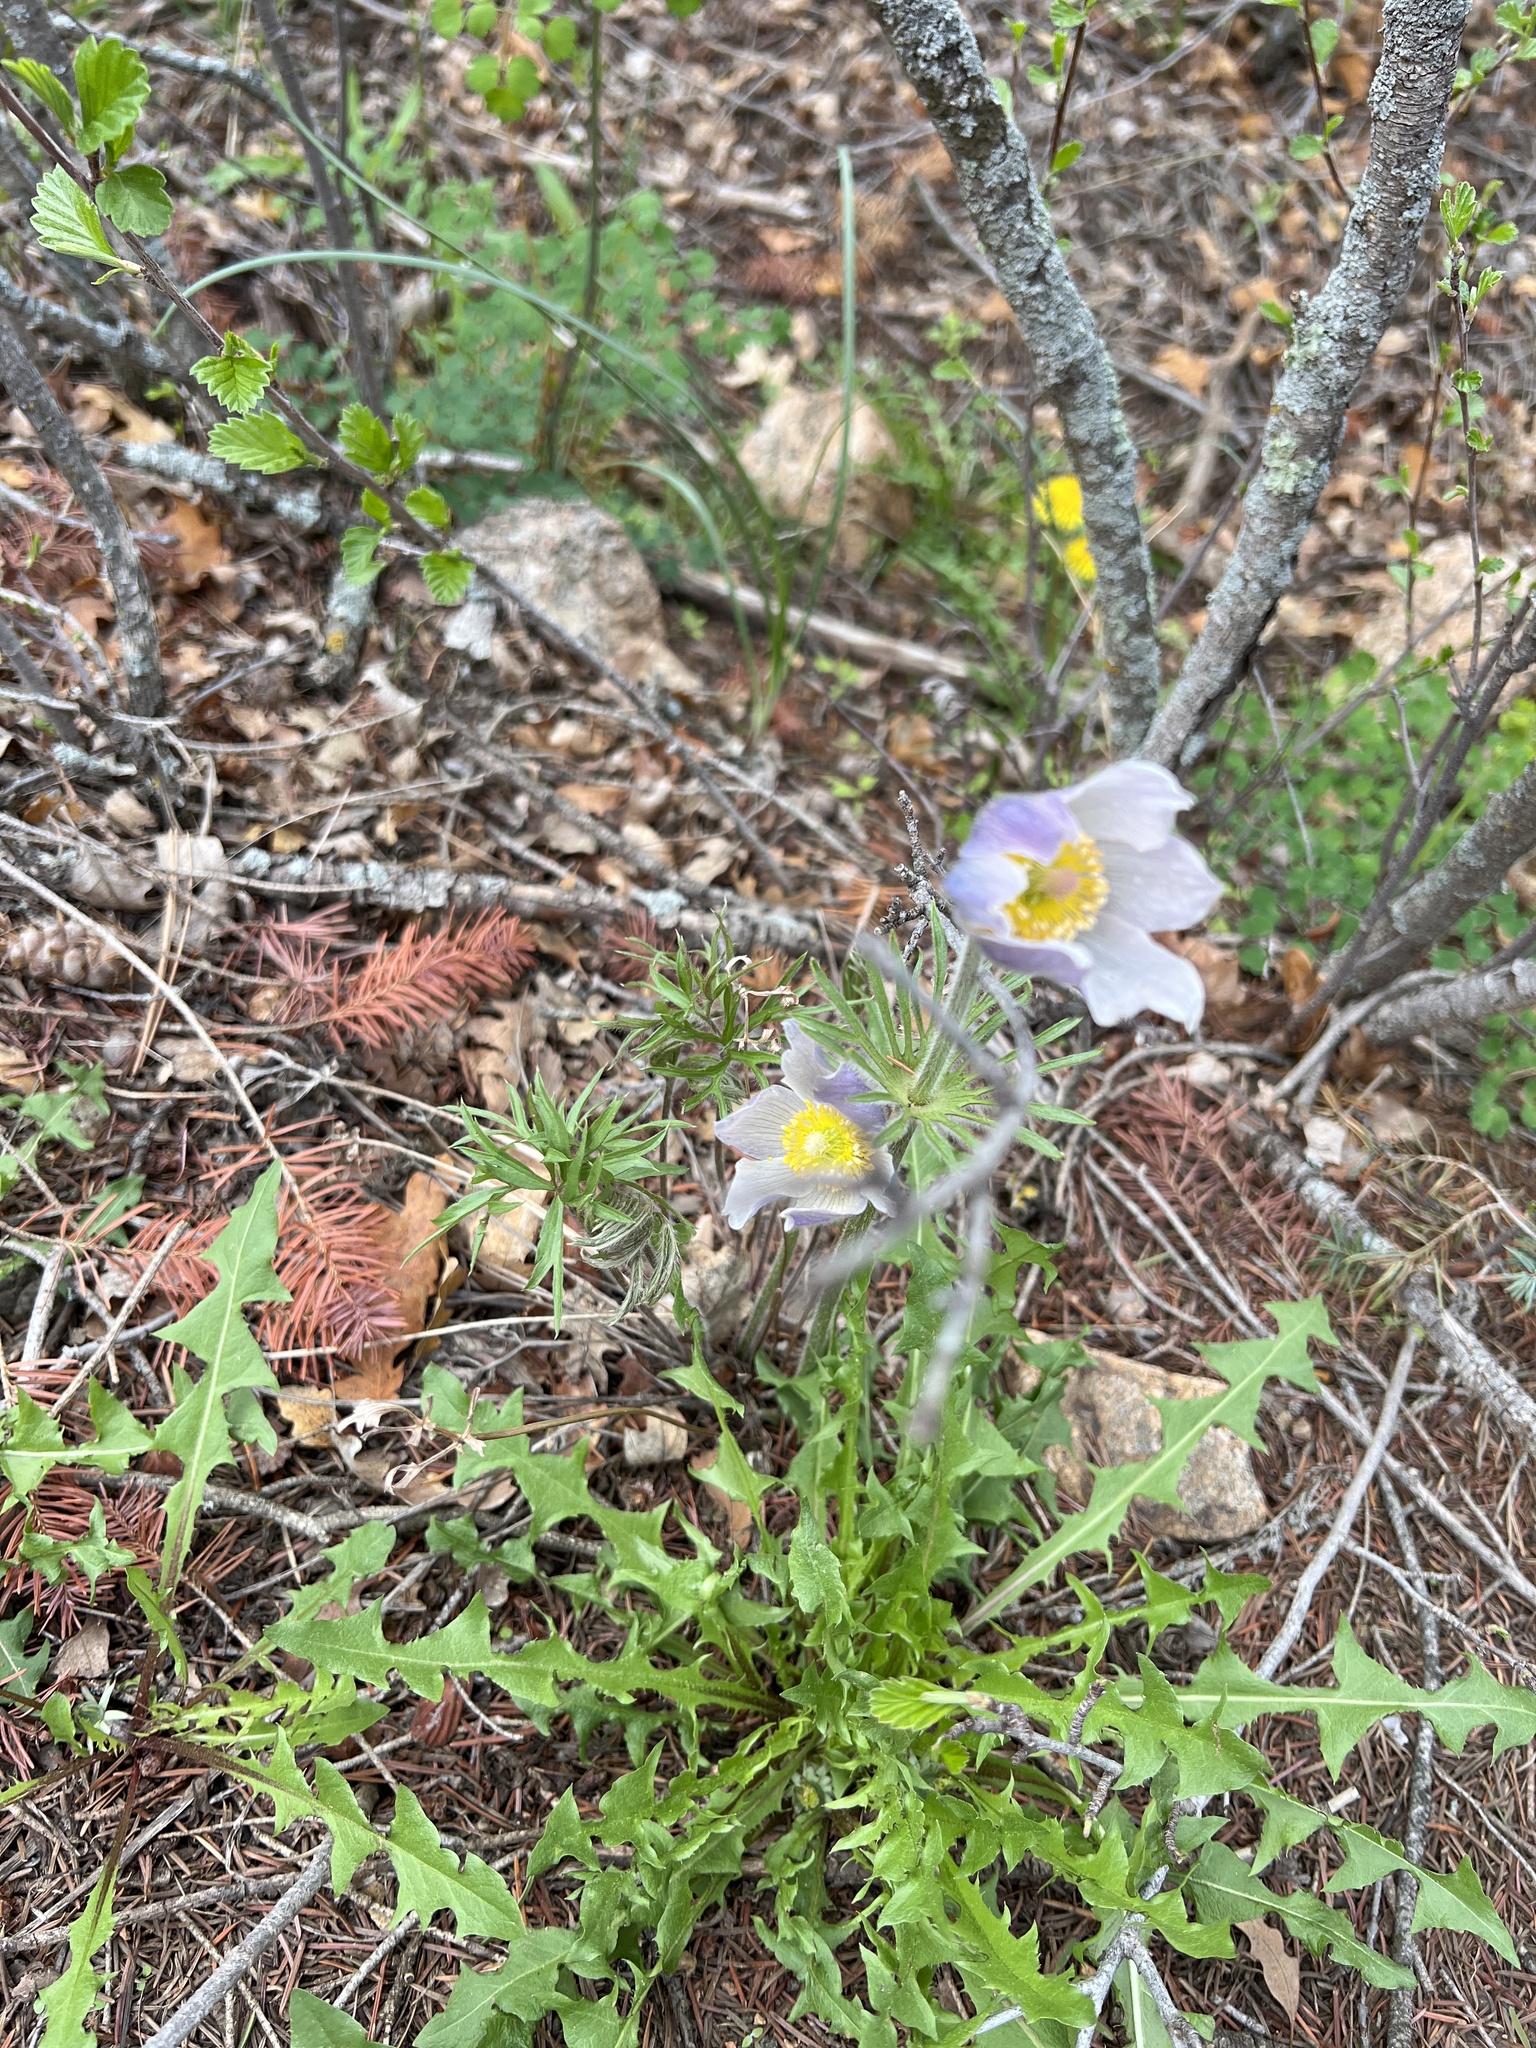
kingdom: Plantae
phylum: Tracheophyta
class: Magnoliopsida
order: Ranunculales
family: Ranunculaceae
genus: Pulsatilla
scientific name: Pulsatilla nuttalliana
